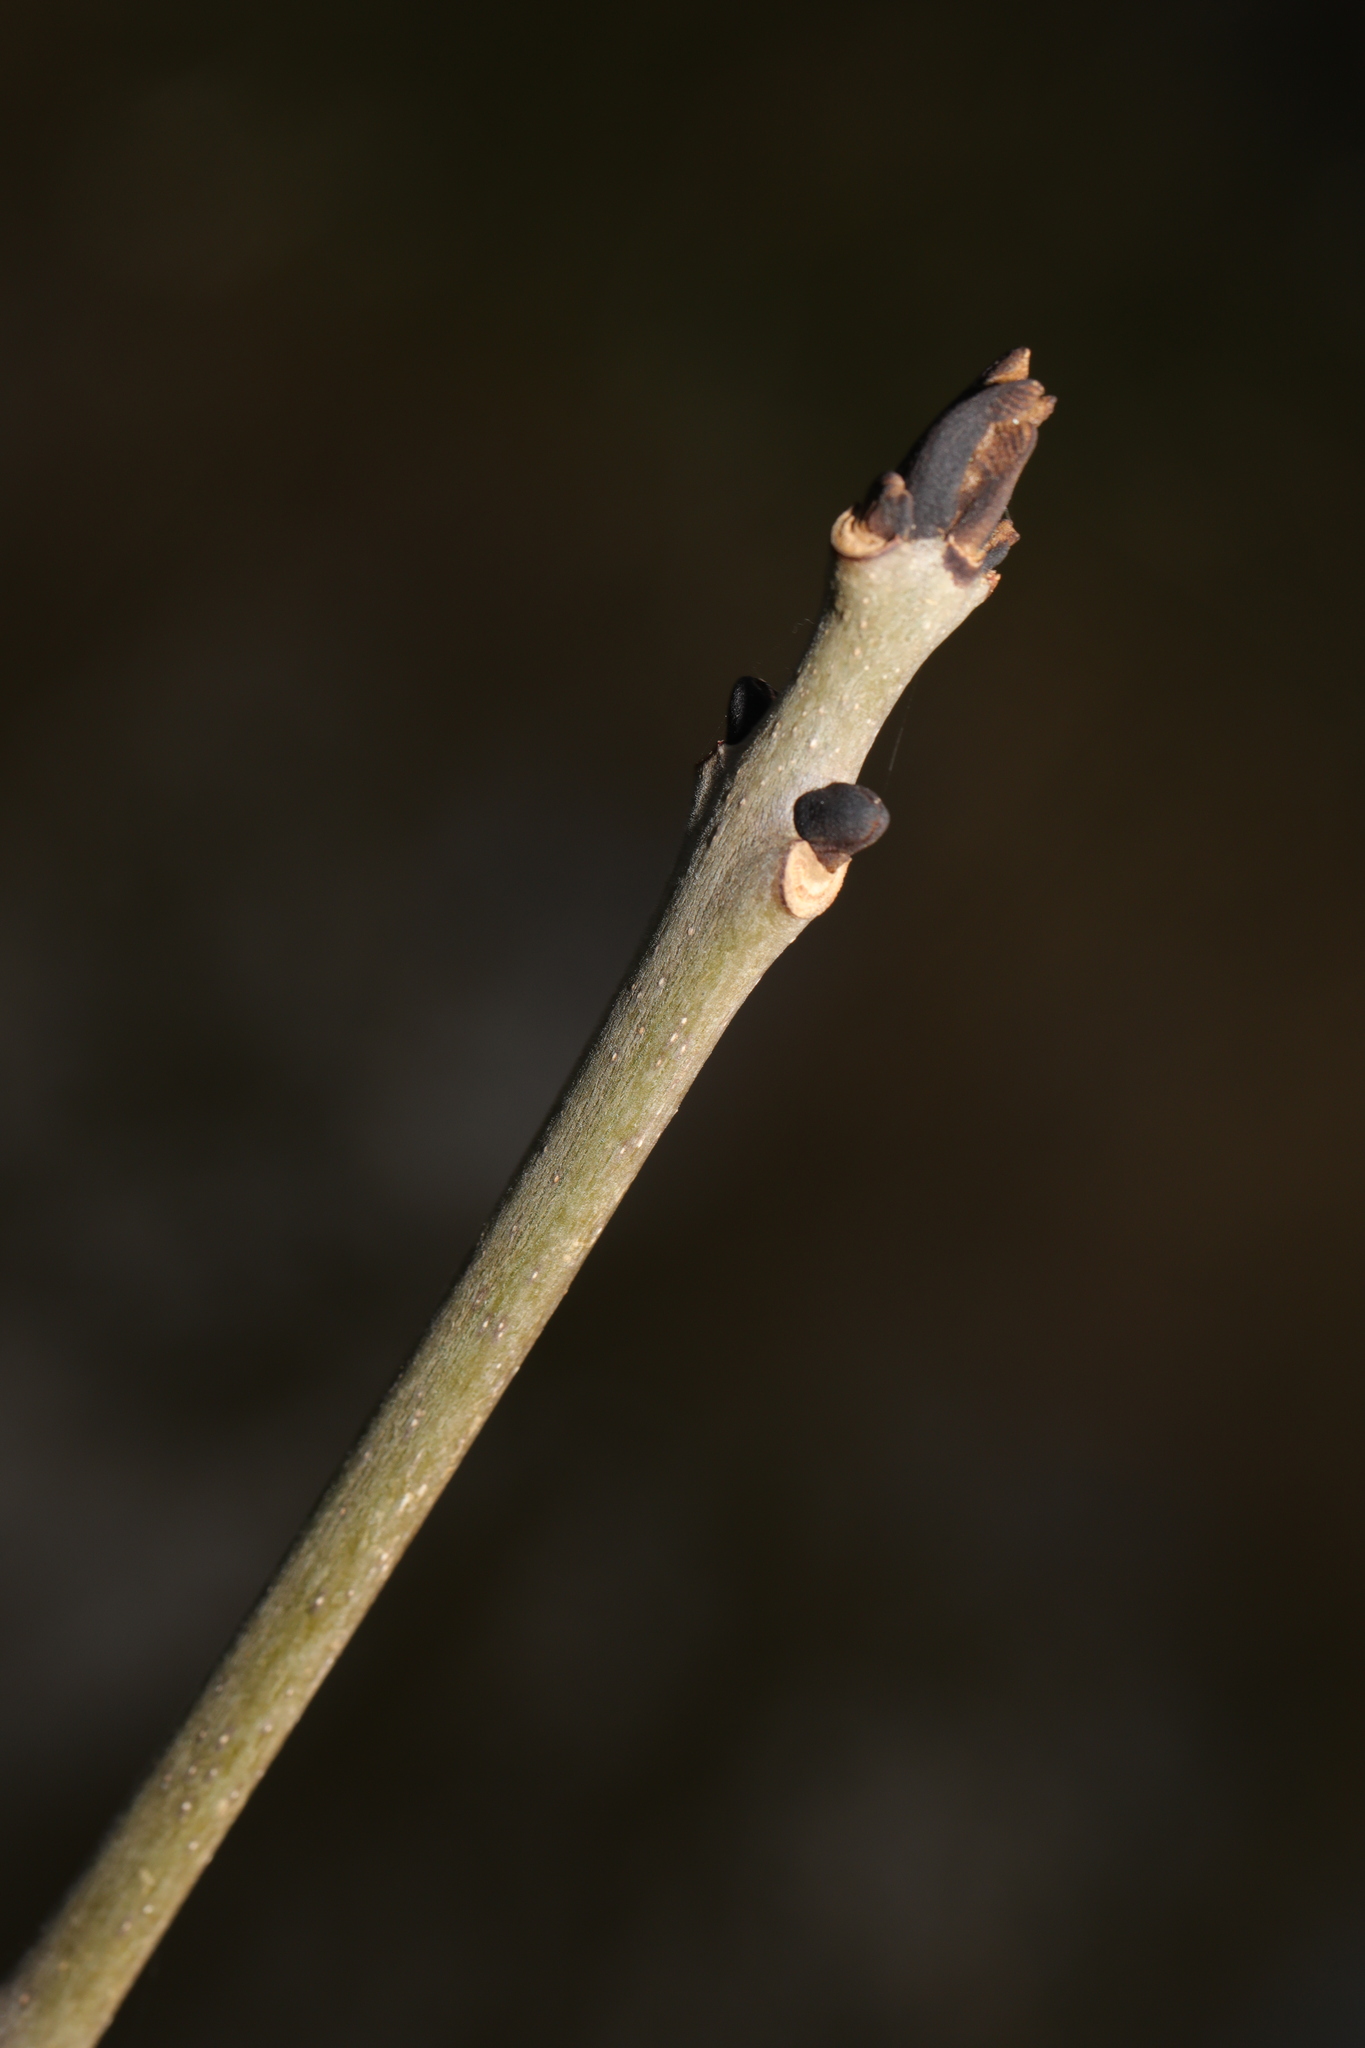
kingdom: Plantae
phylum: Tracheophyta
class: Magnoliopsida
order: Lamiales
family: Oleaceae
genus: Fraxinus
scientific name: Fraxinus excelsior
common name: European ash
